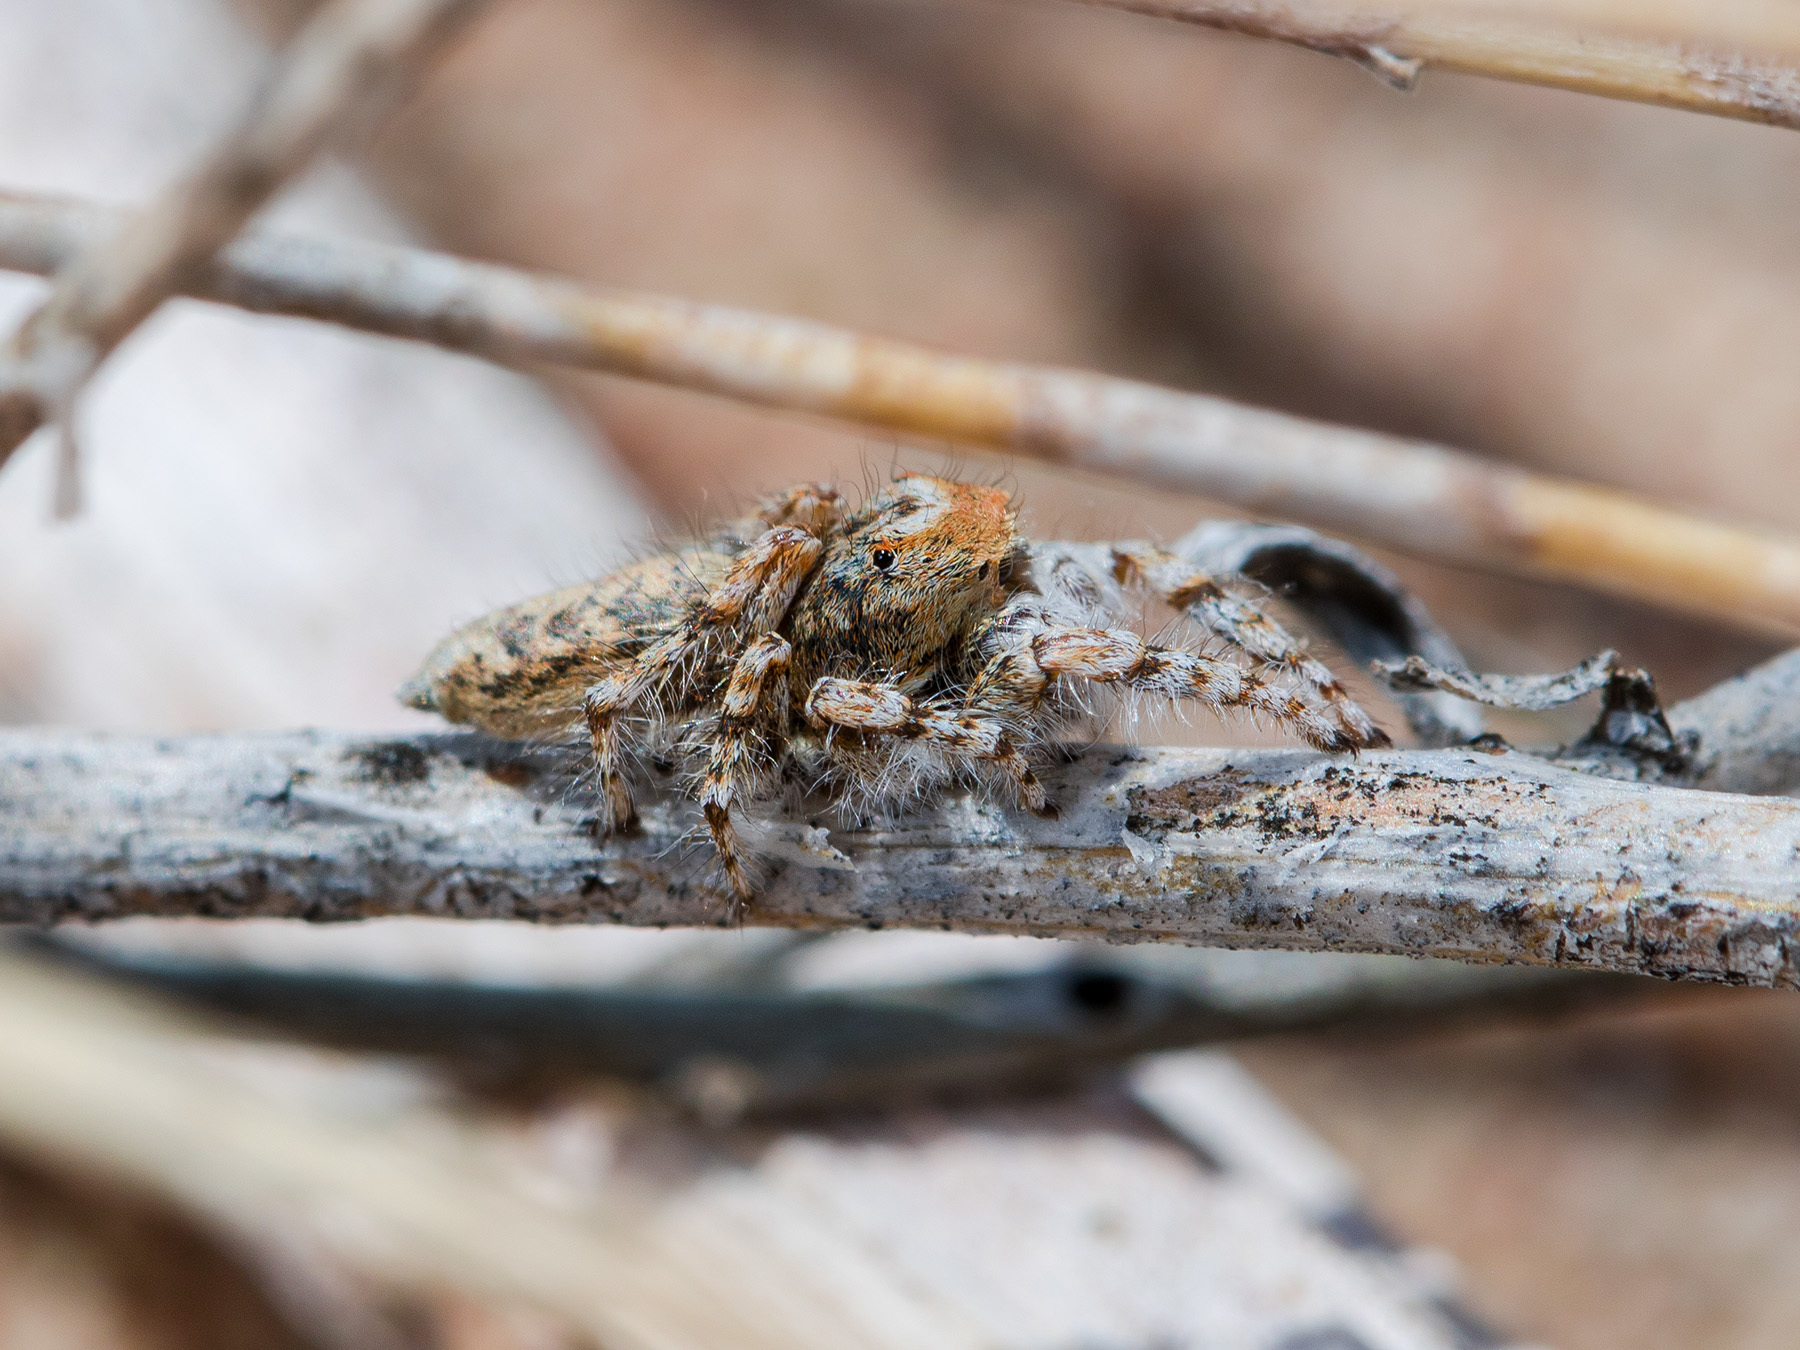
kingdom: Animalia
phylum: Arthropoda
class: Arachnida
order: Araneae
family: Salticidae
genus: Yllenus
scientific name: Yllenus uiguricus
